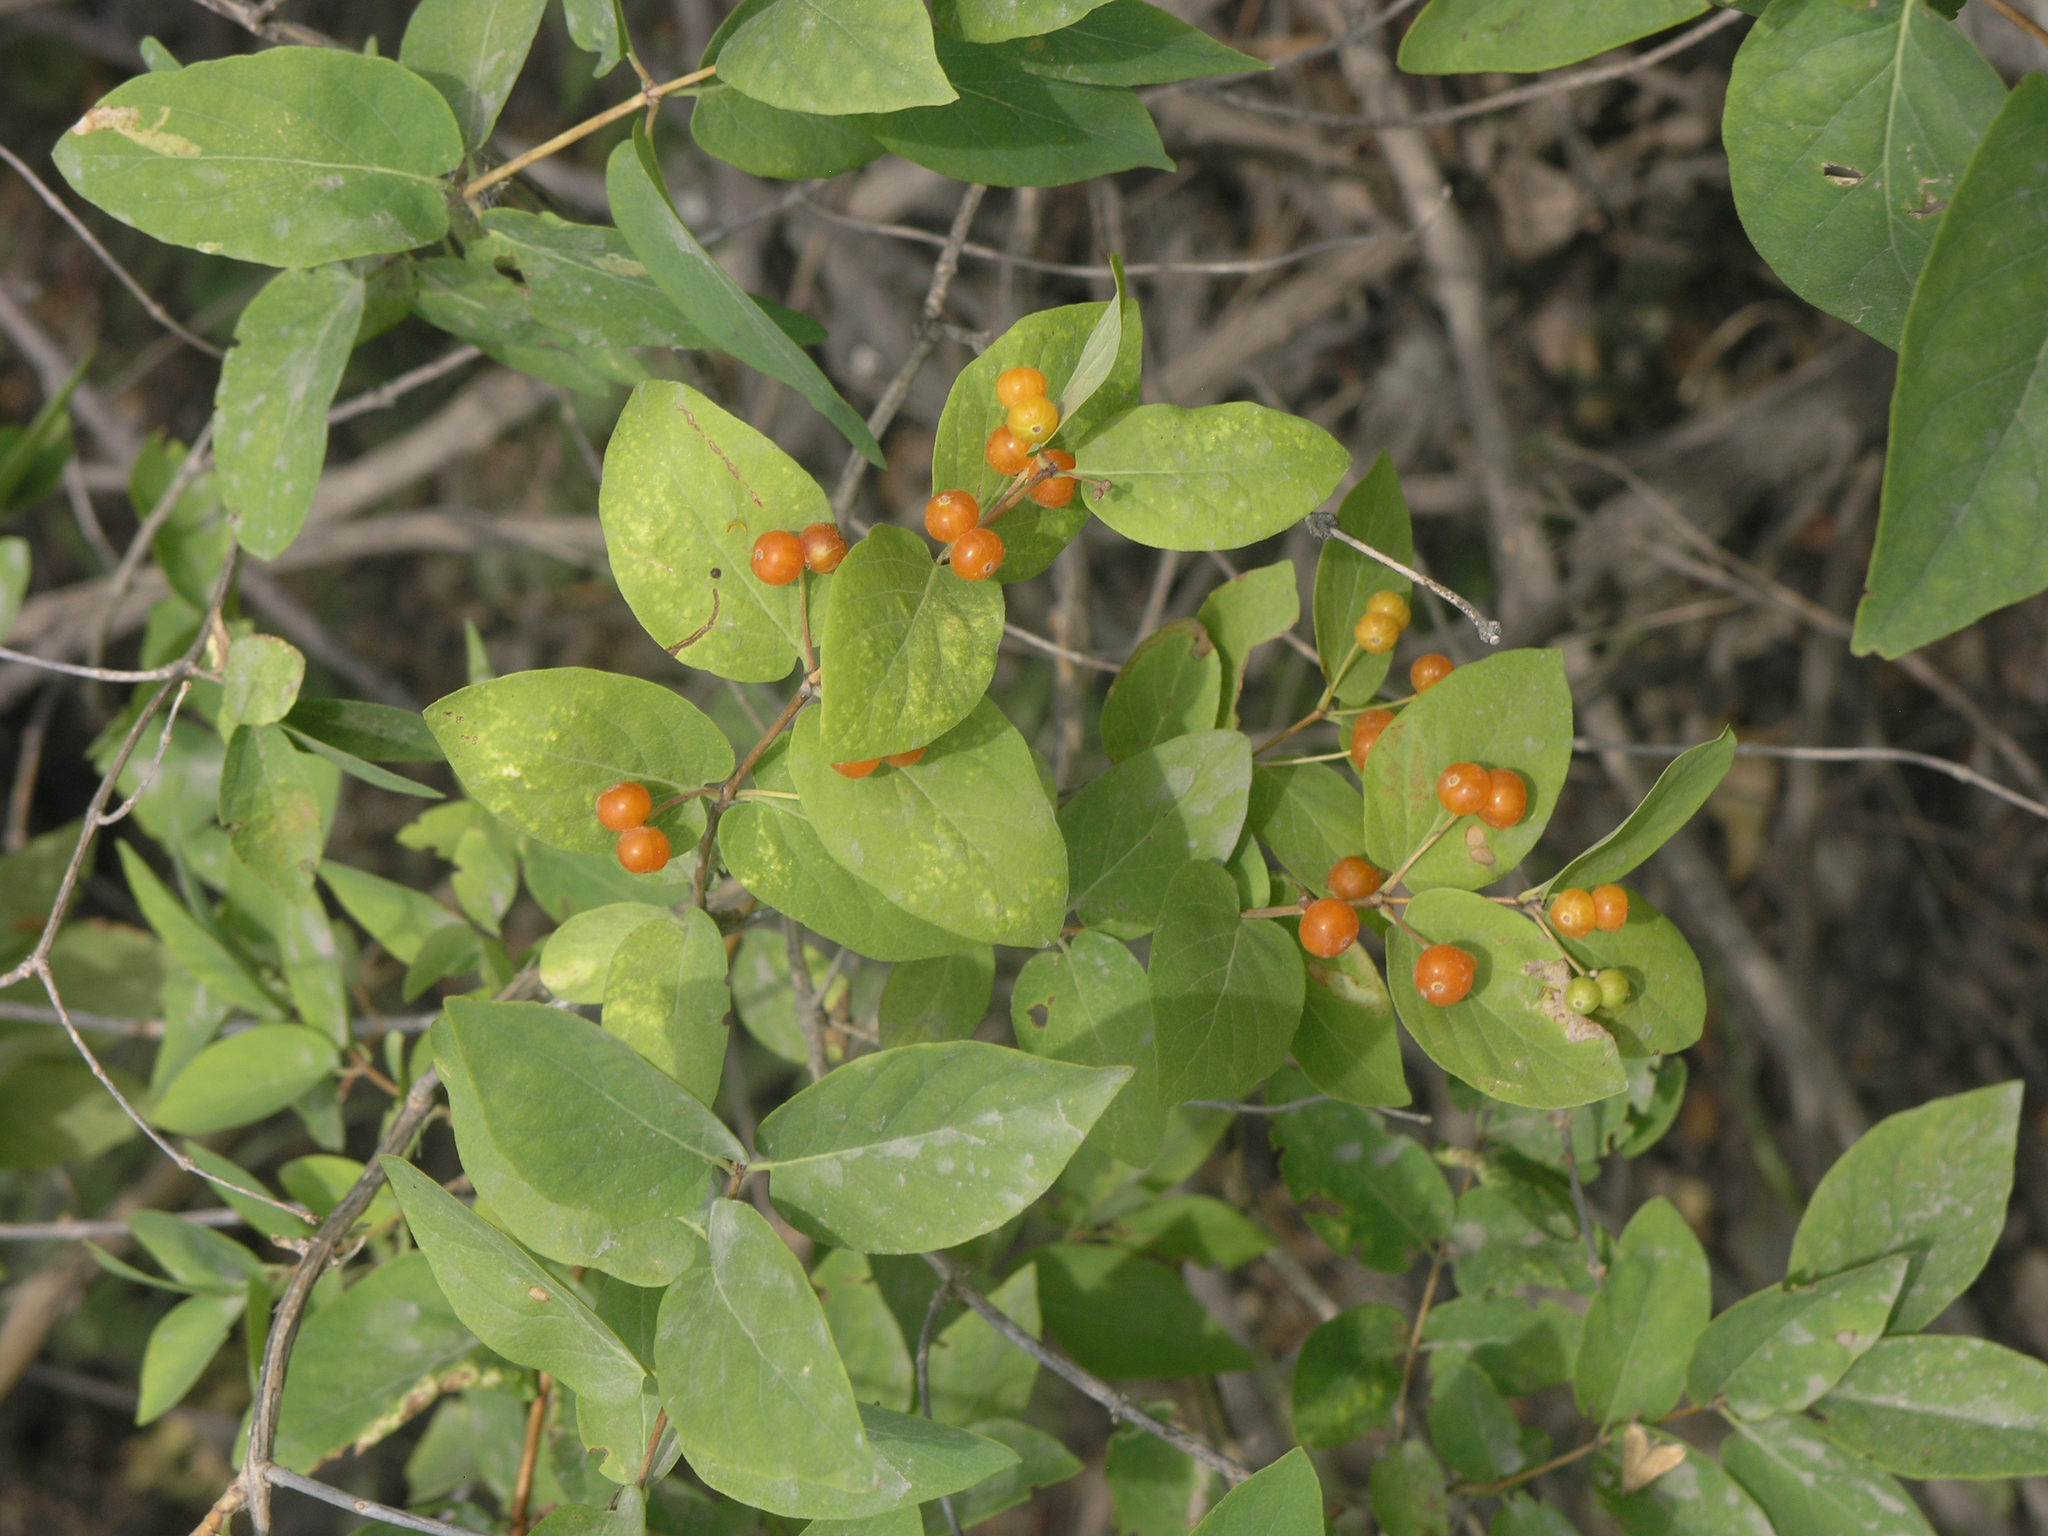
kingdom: Plantae
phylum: Tracheophyta
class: Magnoliopsida
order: Dipsacales
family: Caprifoliaceae
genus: Lonicera
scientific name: Lonicera tatarica
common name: Tatarian honeysuckle
